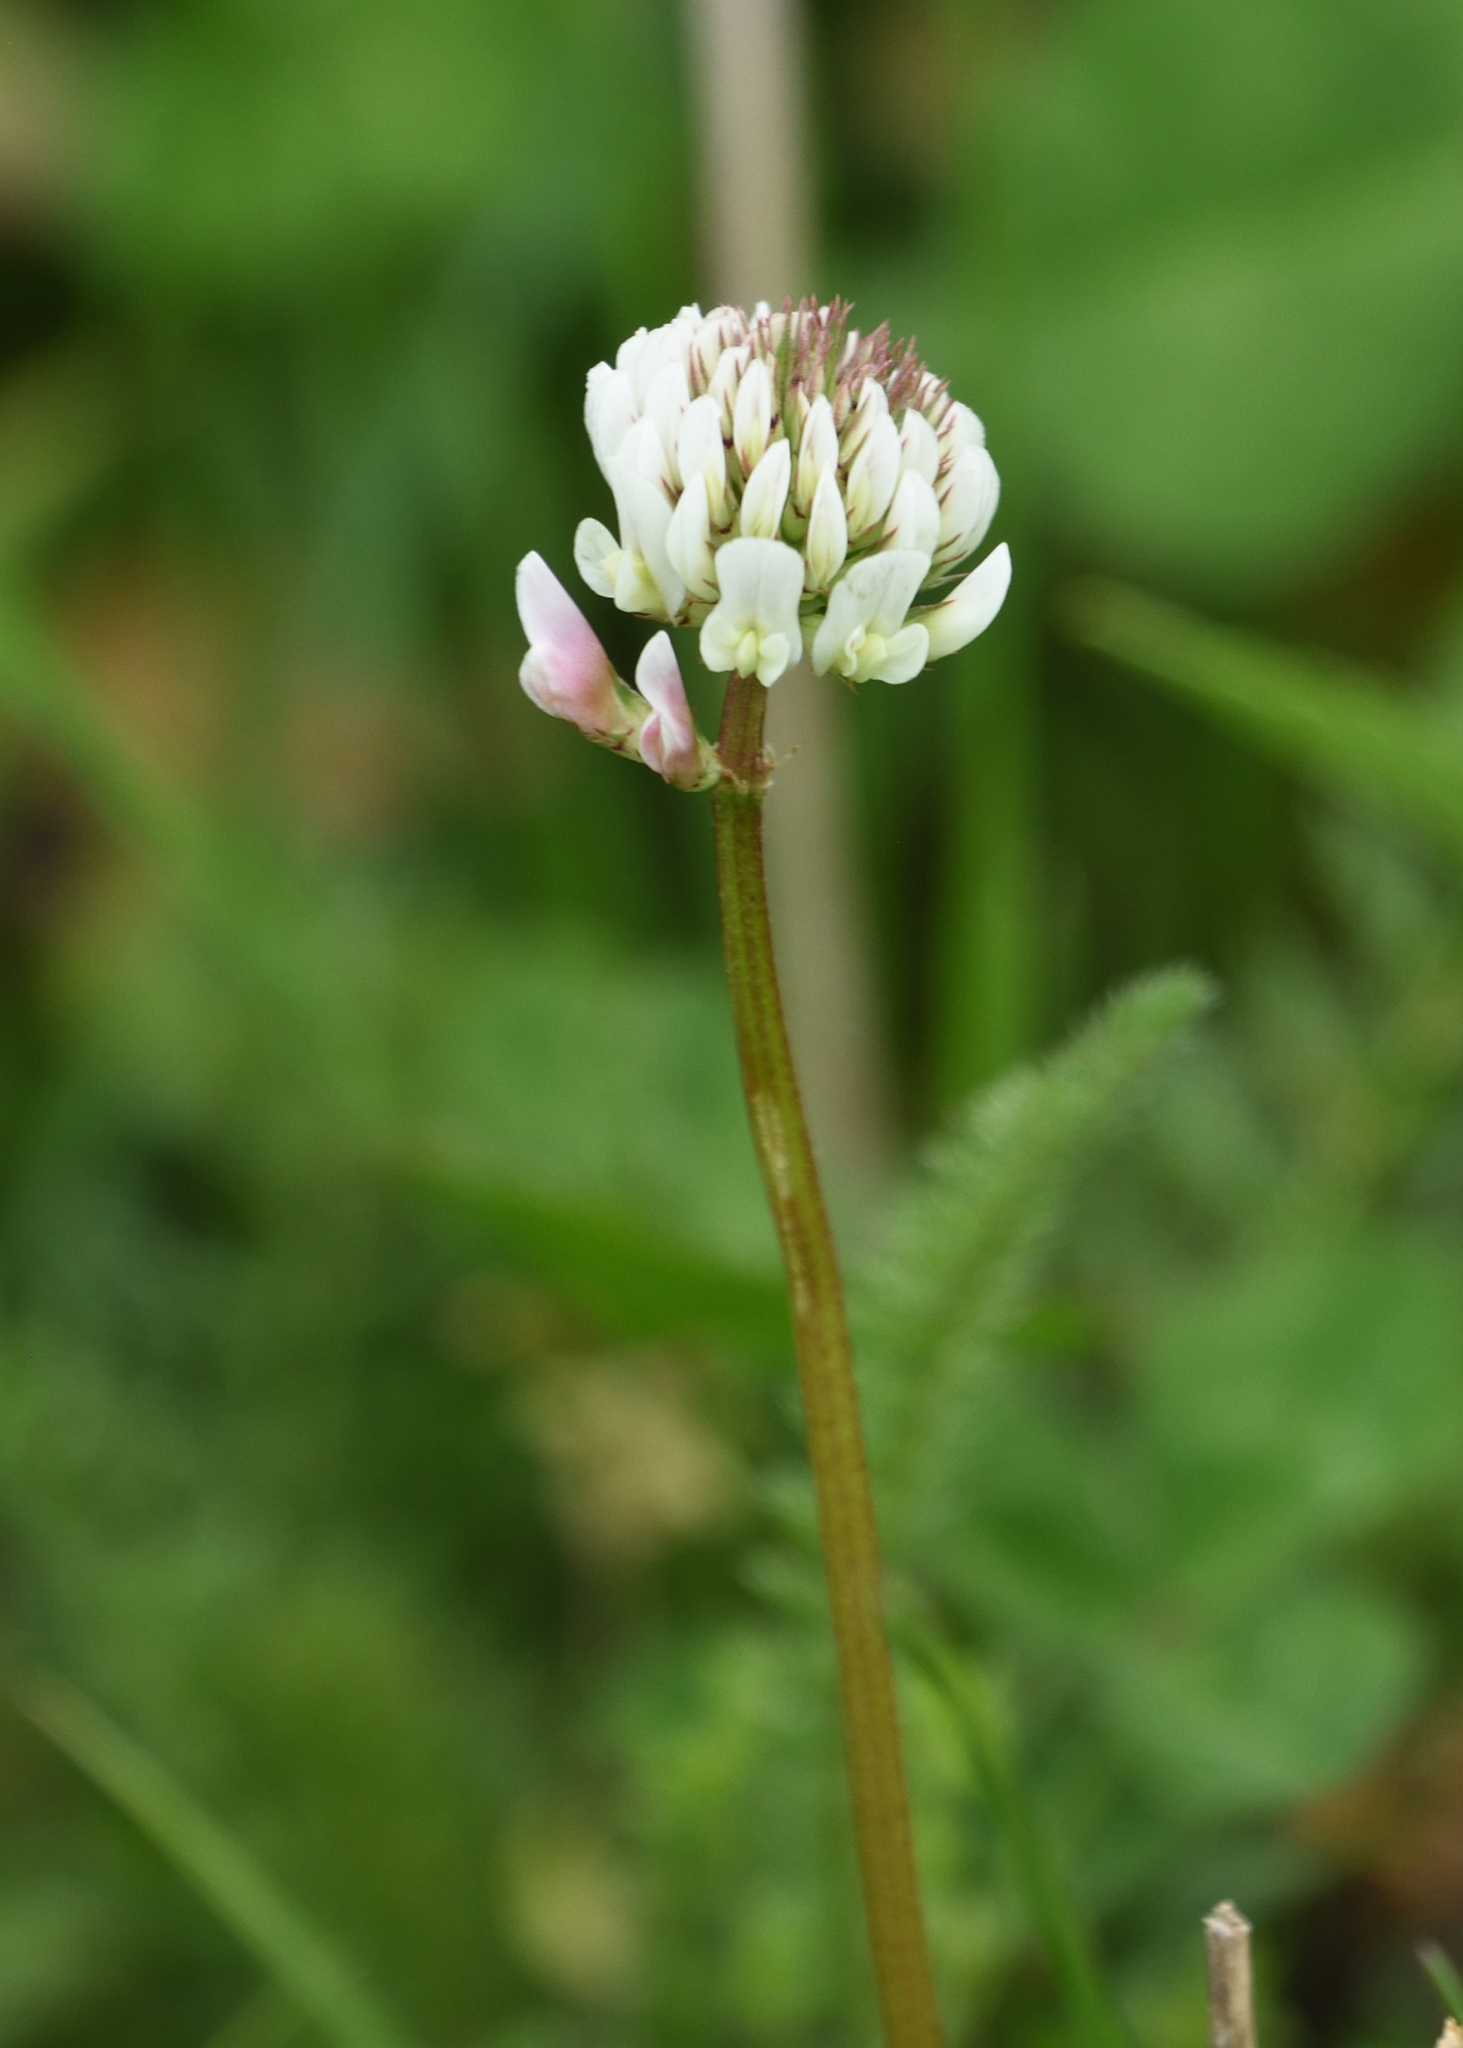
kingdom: Plantae
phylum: Tracheophyta
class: Magnoliopsida
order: Fabales
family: Fabaceae
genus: Trifolium
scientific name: Trifolium repens
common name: White clover
